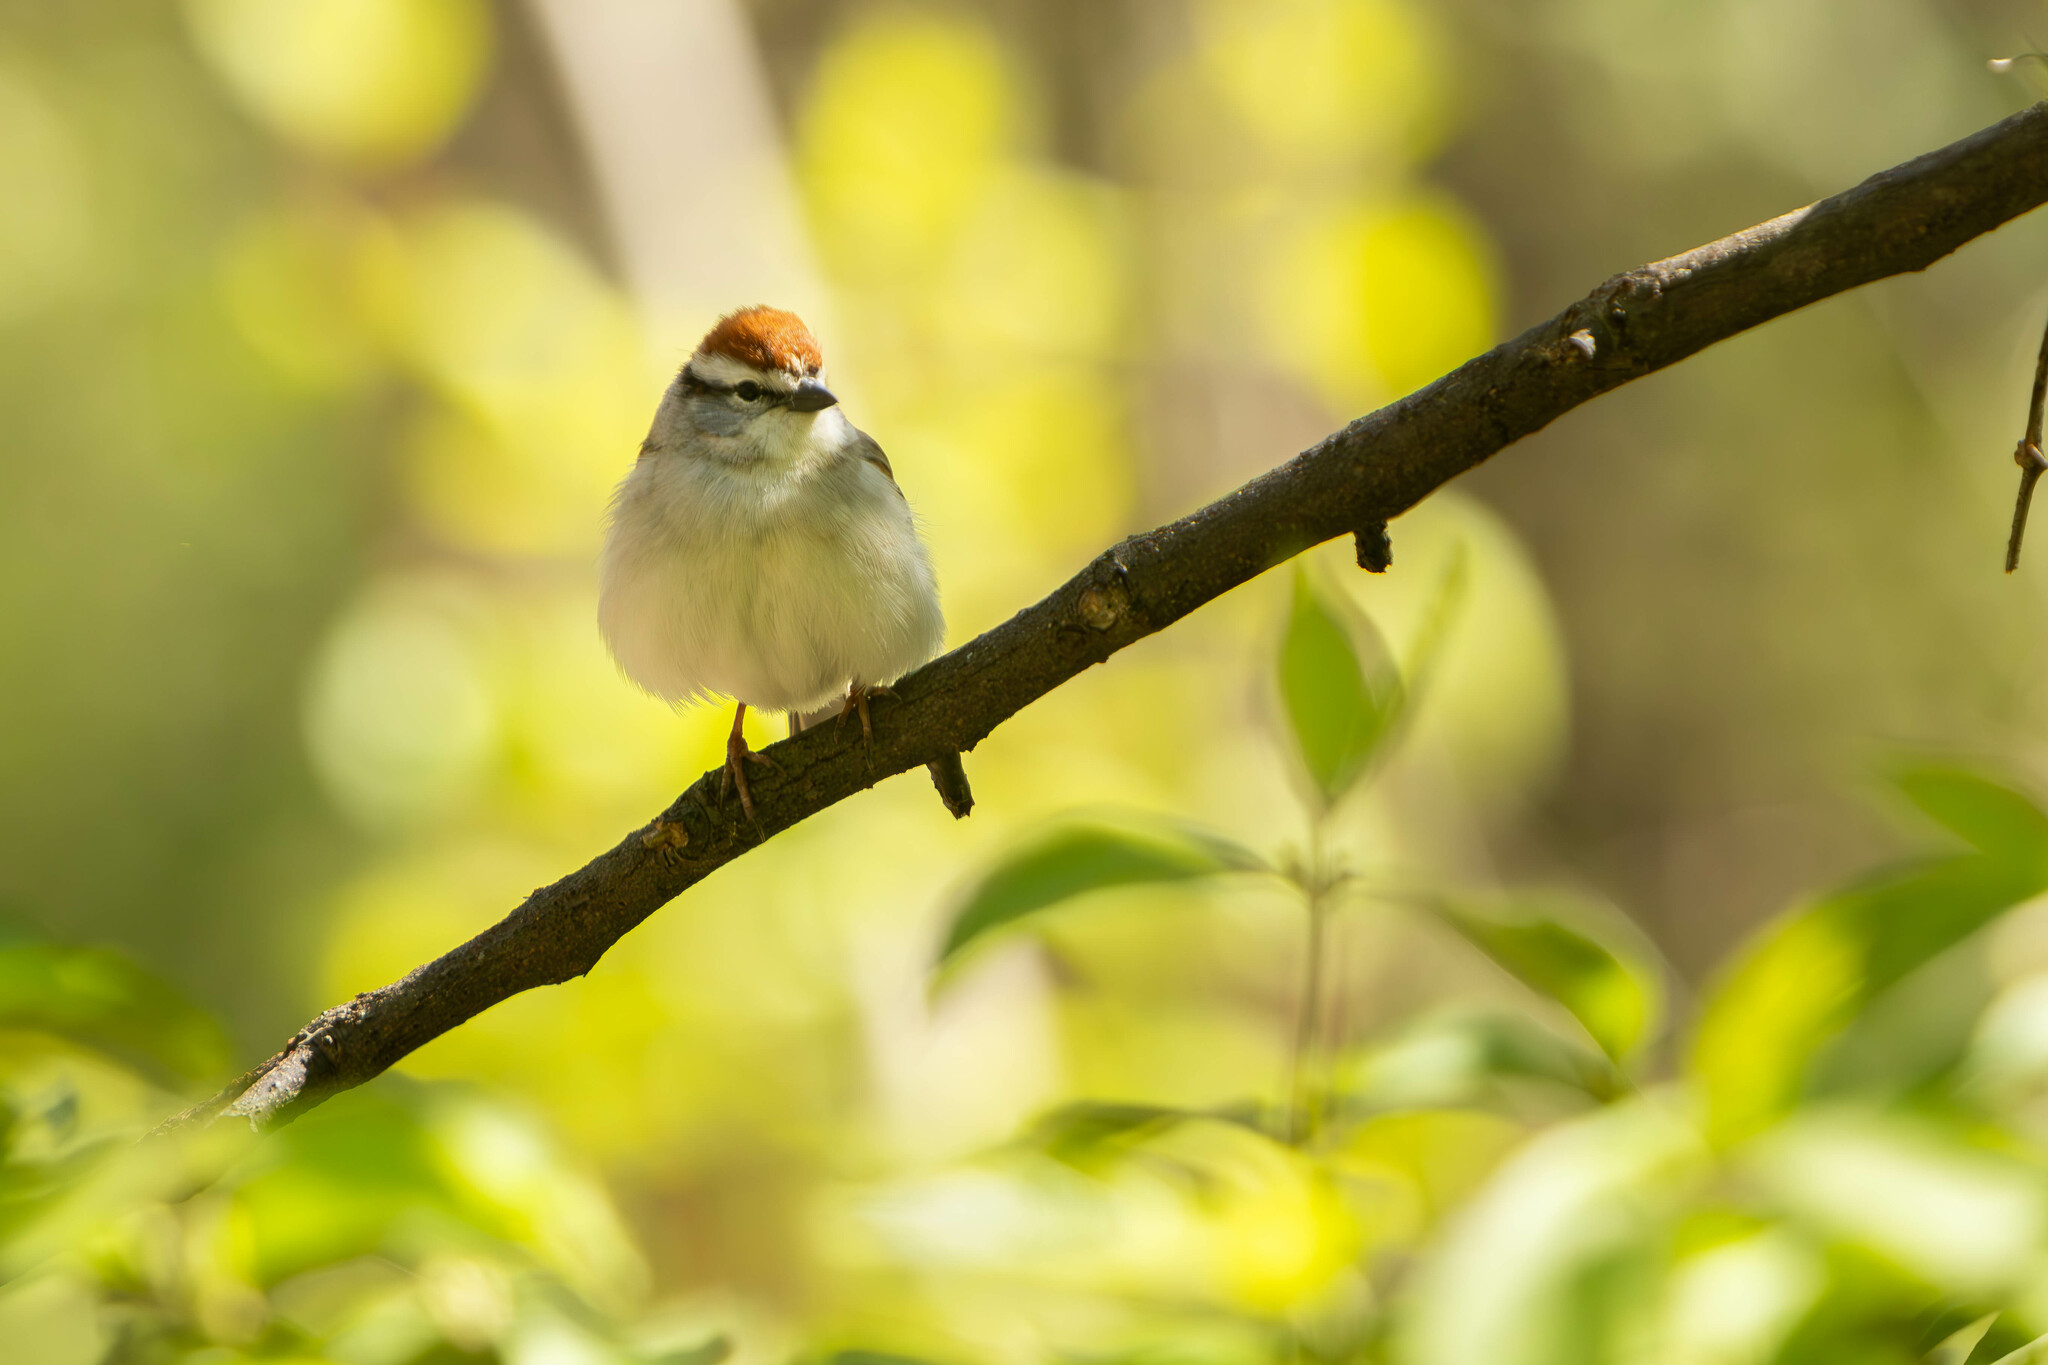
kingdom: Animalia
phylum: Chordata
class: Aves
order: Passeriformes
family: Passerellidae
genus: Spizella
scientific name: Spizella passerina
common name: Chipping sparrow
